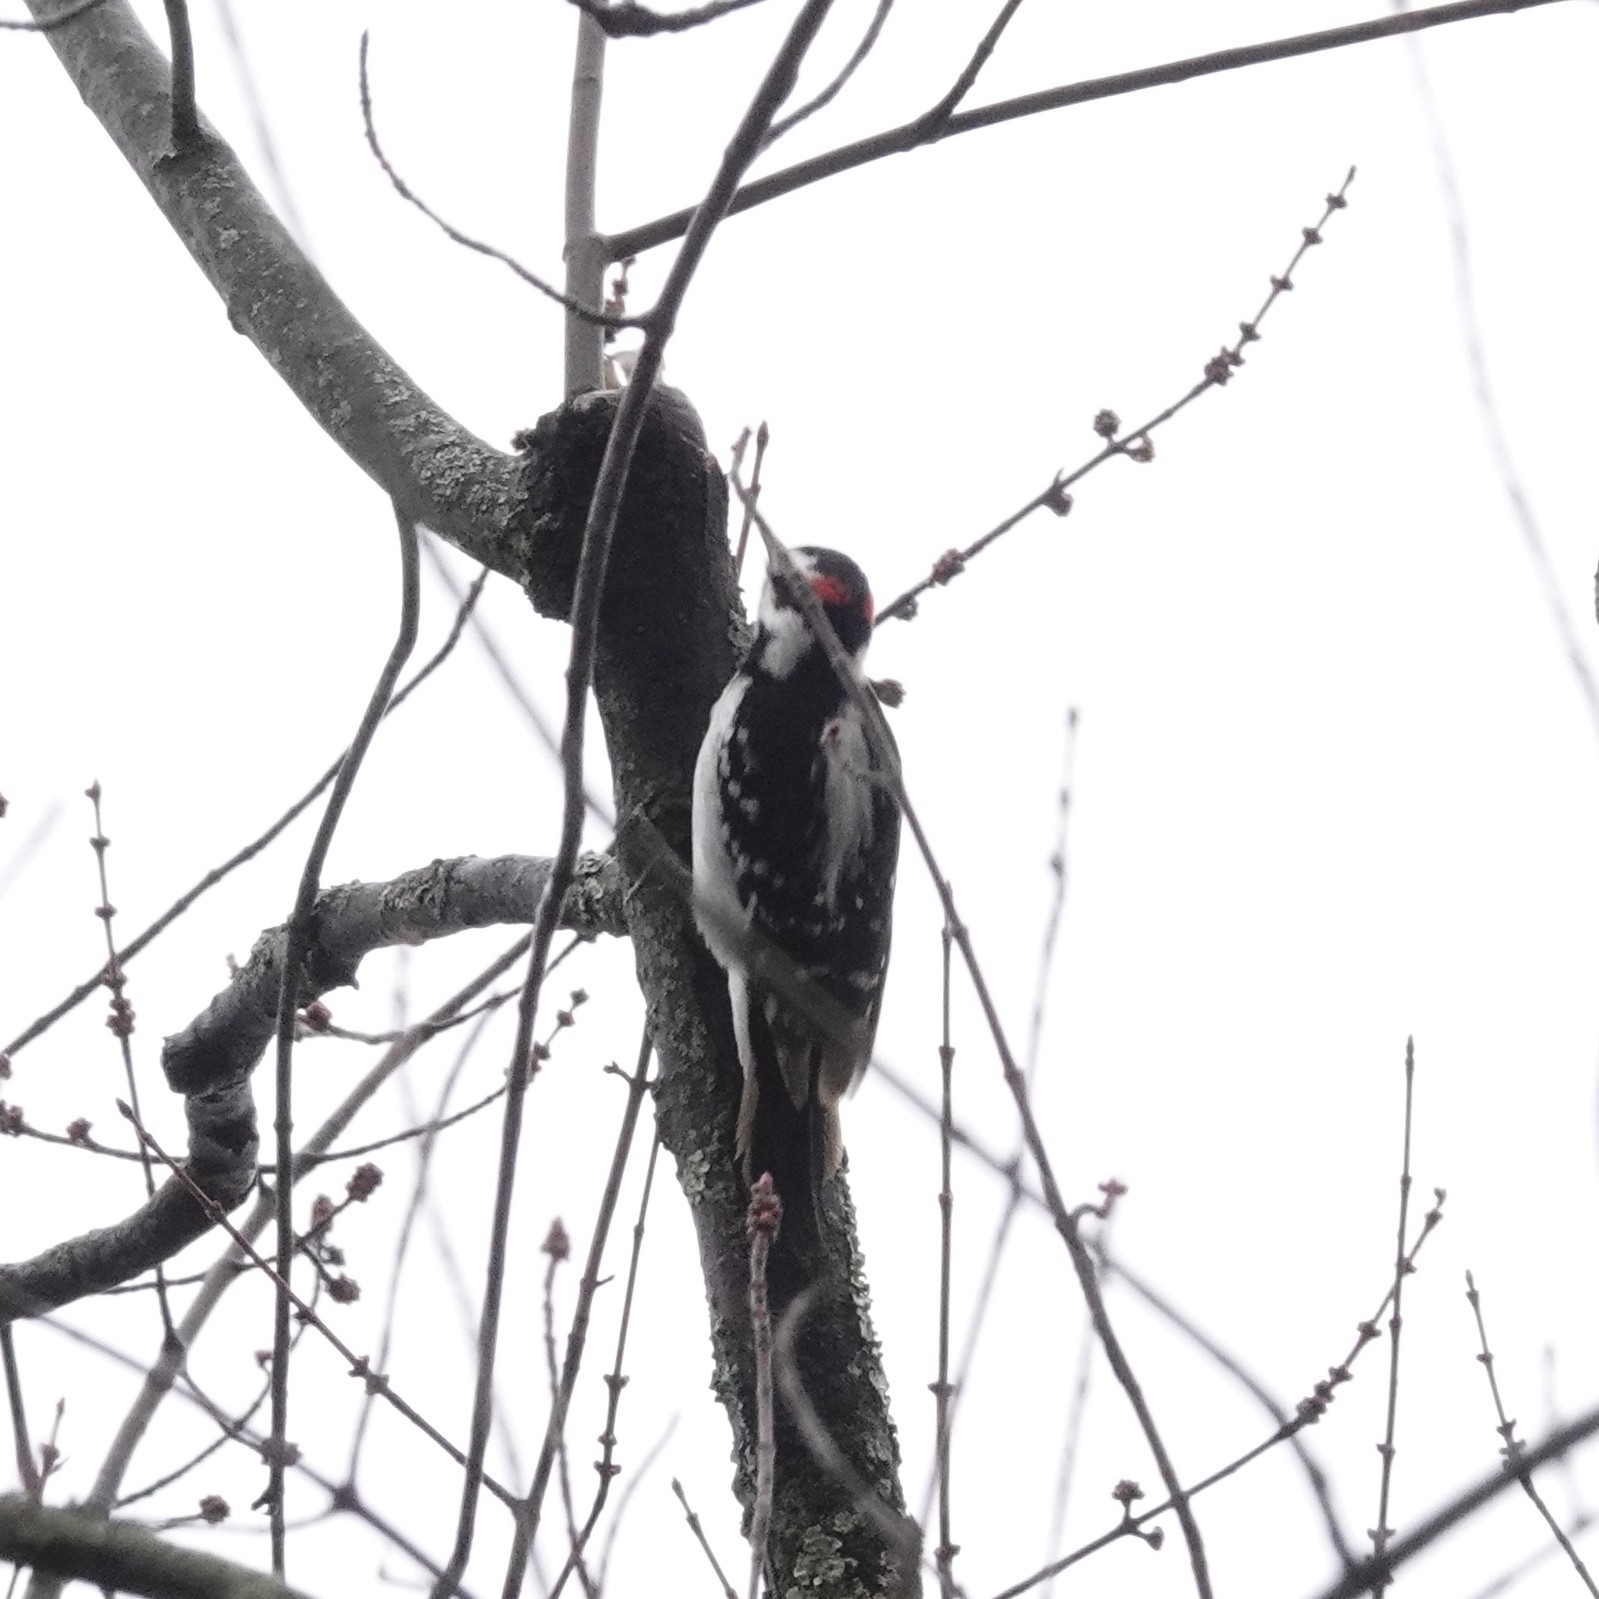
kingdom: Animalia
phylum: Chordata
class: Aves
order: Piciformes
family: Picidae
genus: Leuconotopicus
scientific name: Leuconotopicus villosus
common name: Hairy woodpecker
